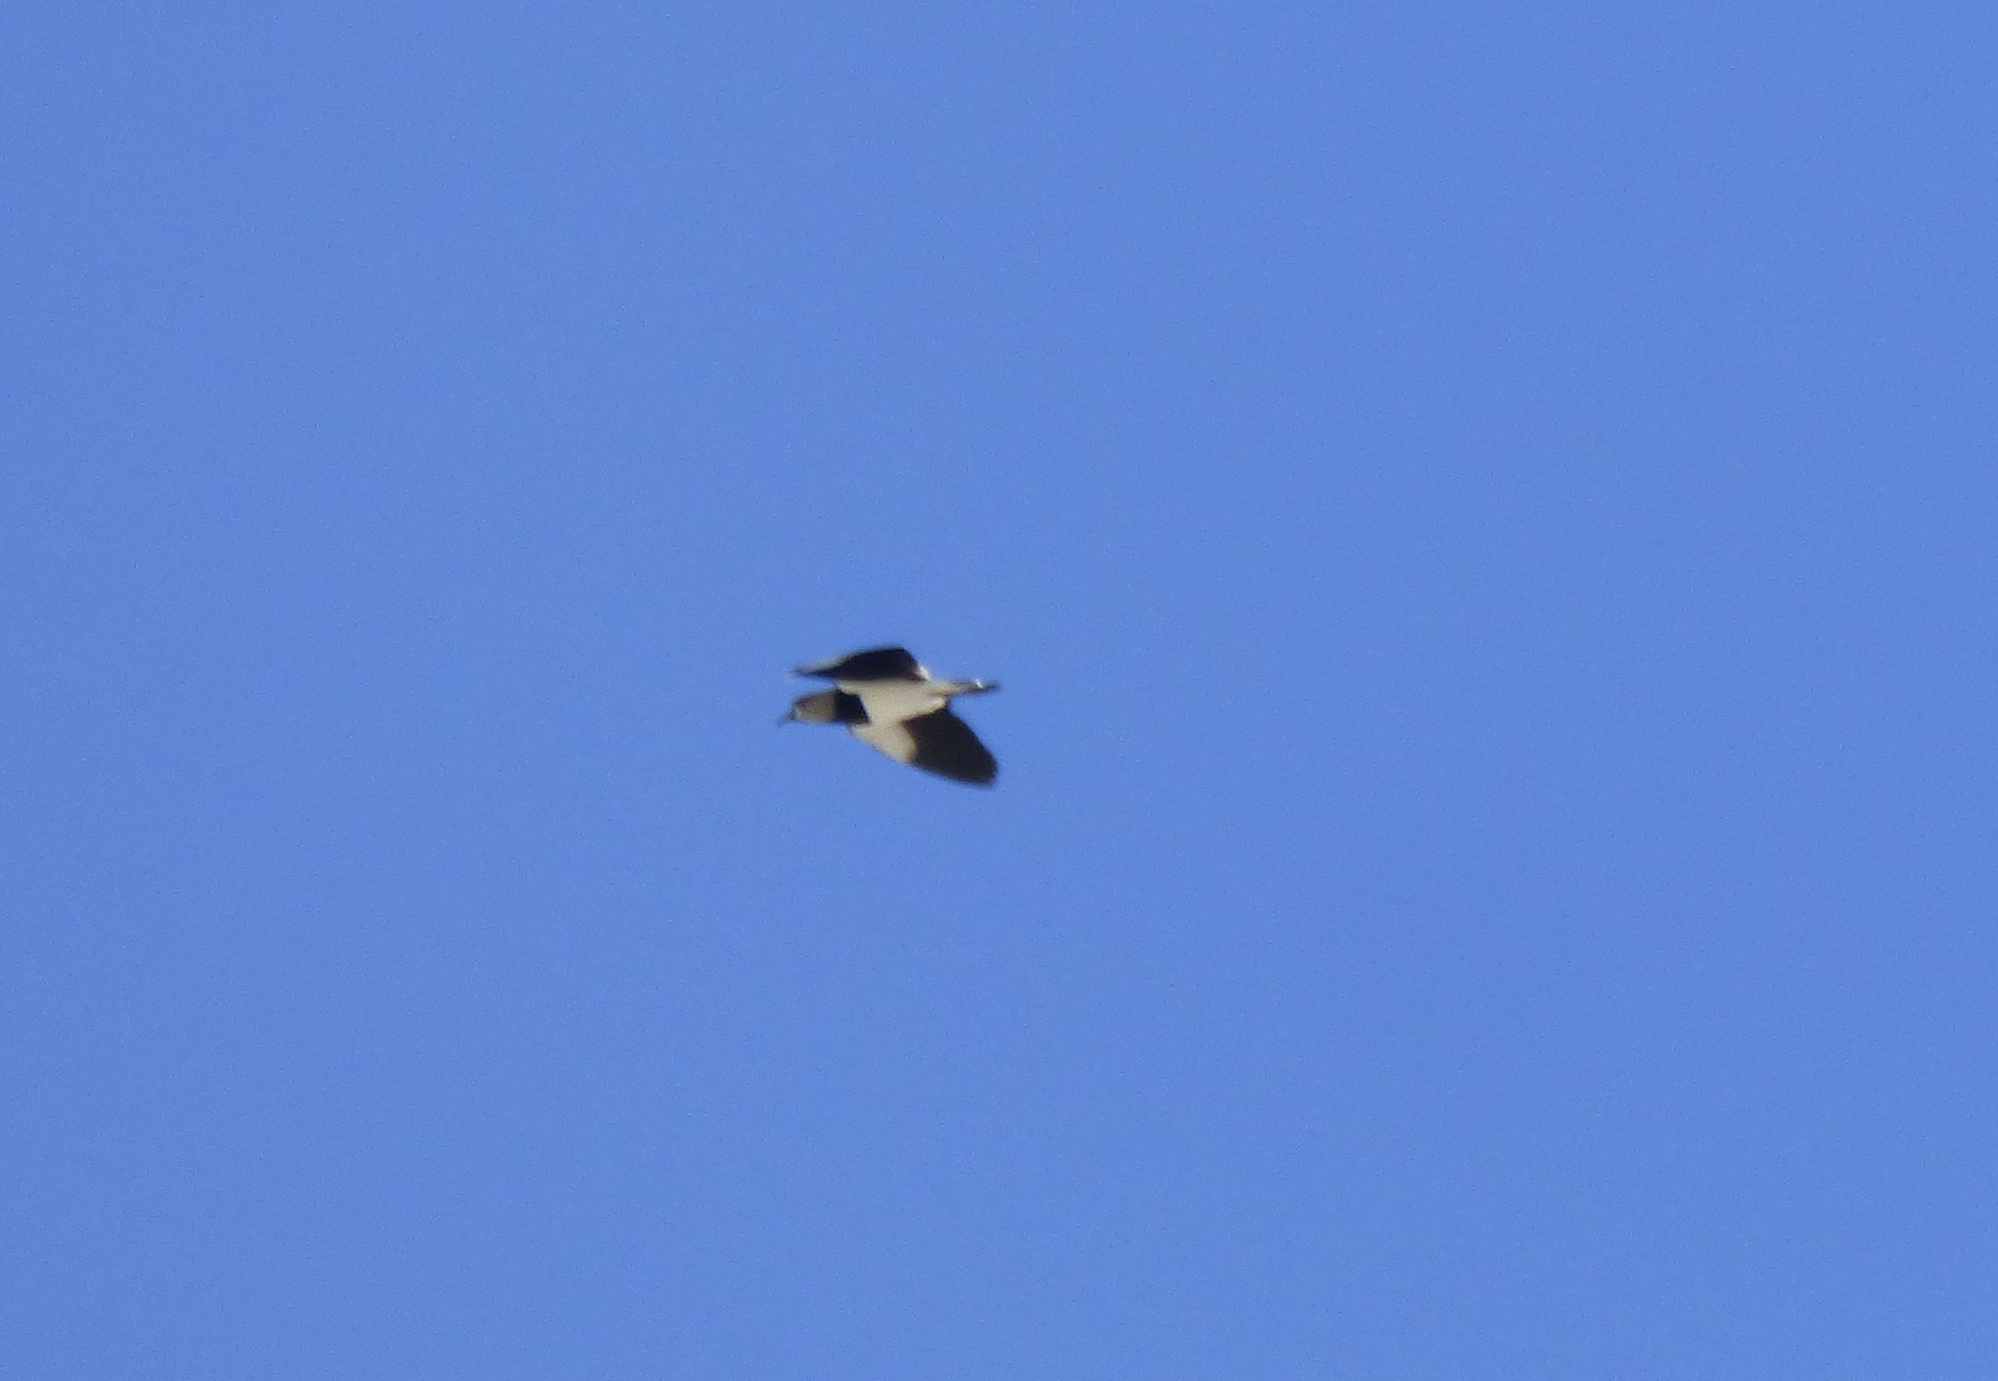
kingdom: Animalia
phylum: Chordata
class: Aves
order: Charadriiformes
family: Charadriidae
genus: Vanellus
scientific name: Vanellus chilensis
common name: Southern lapwing
